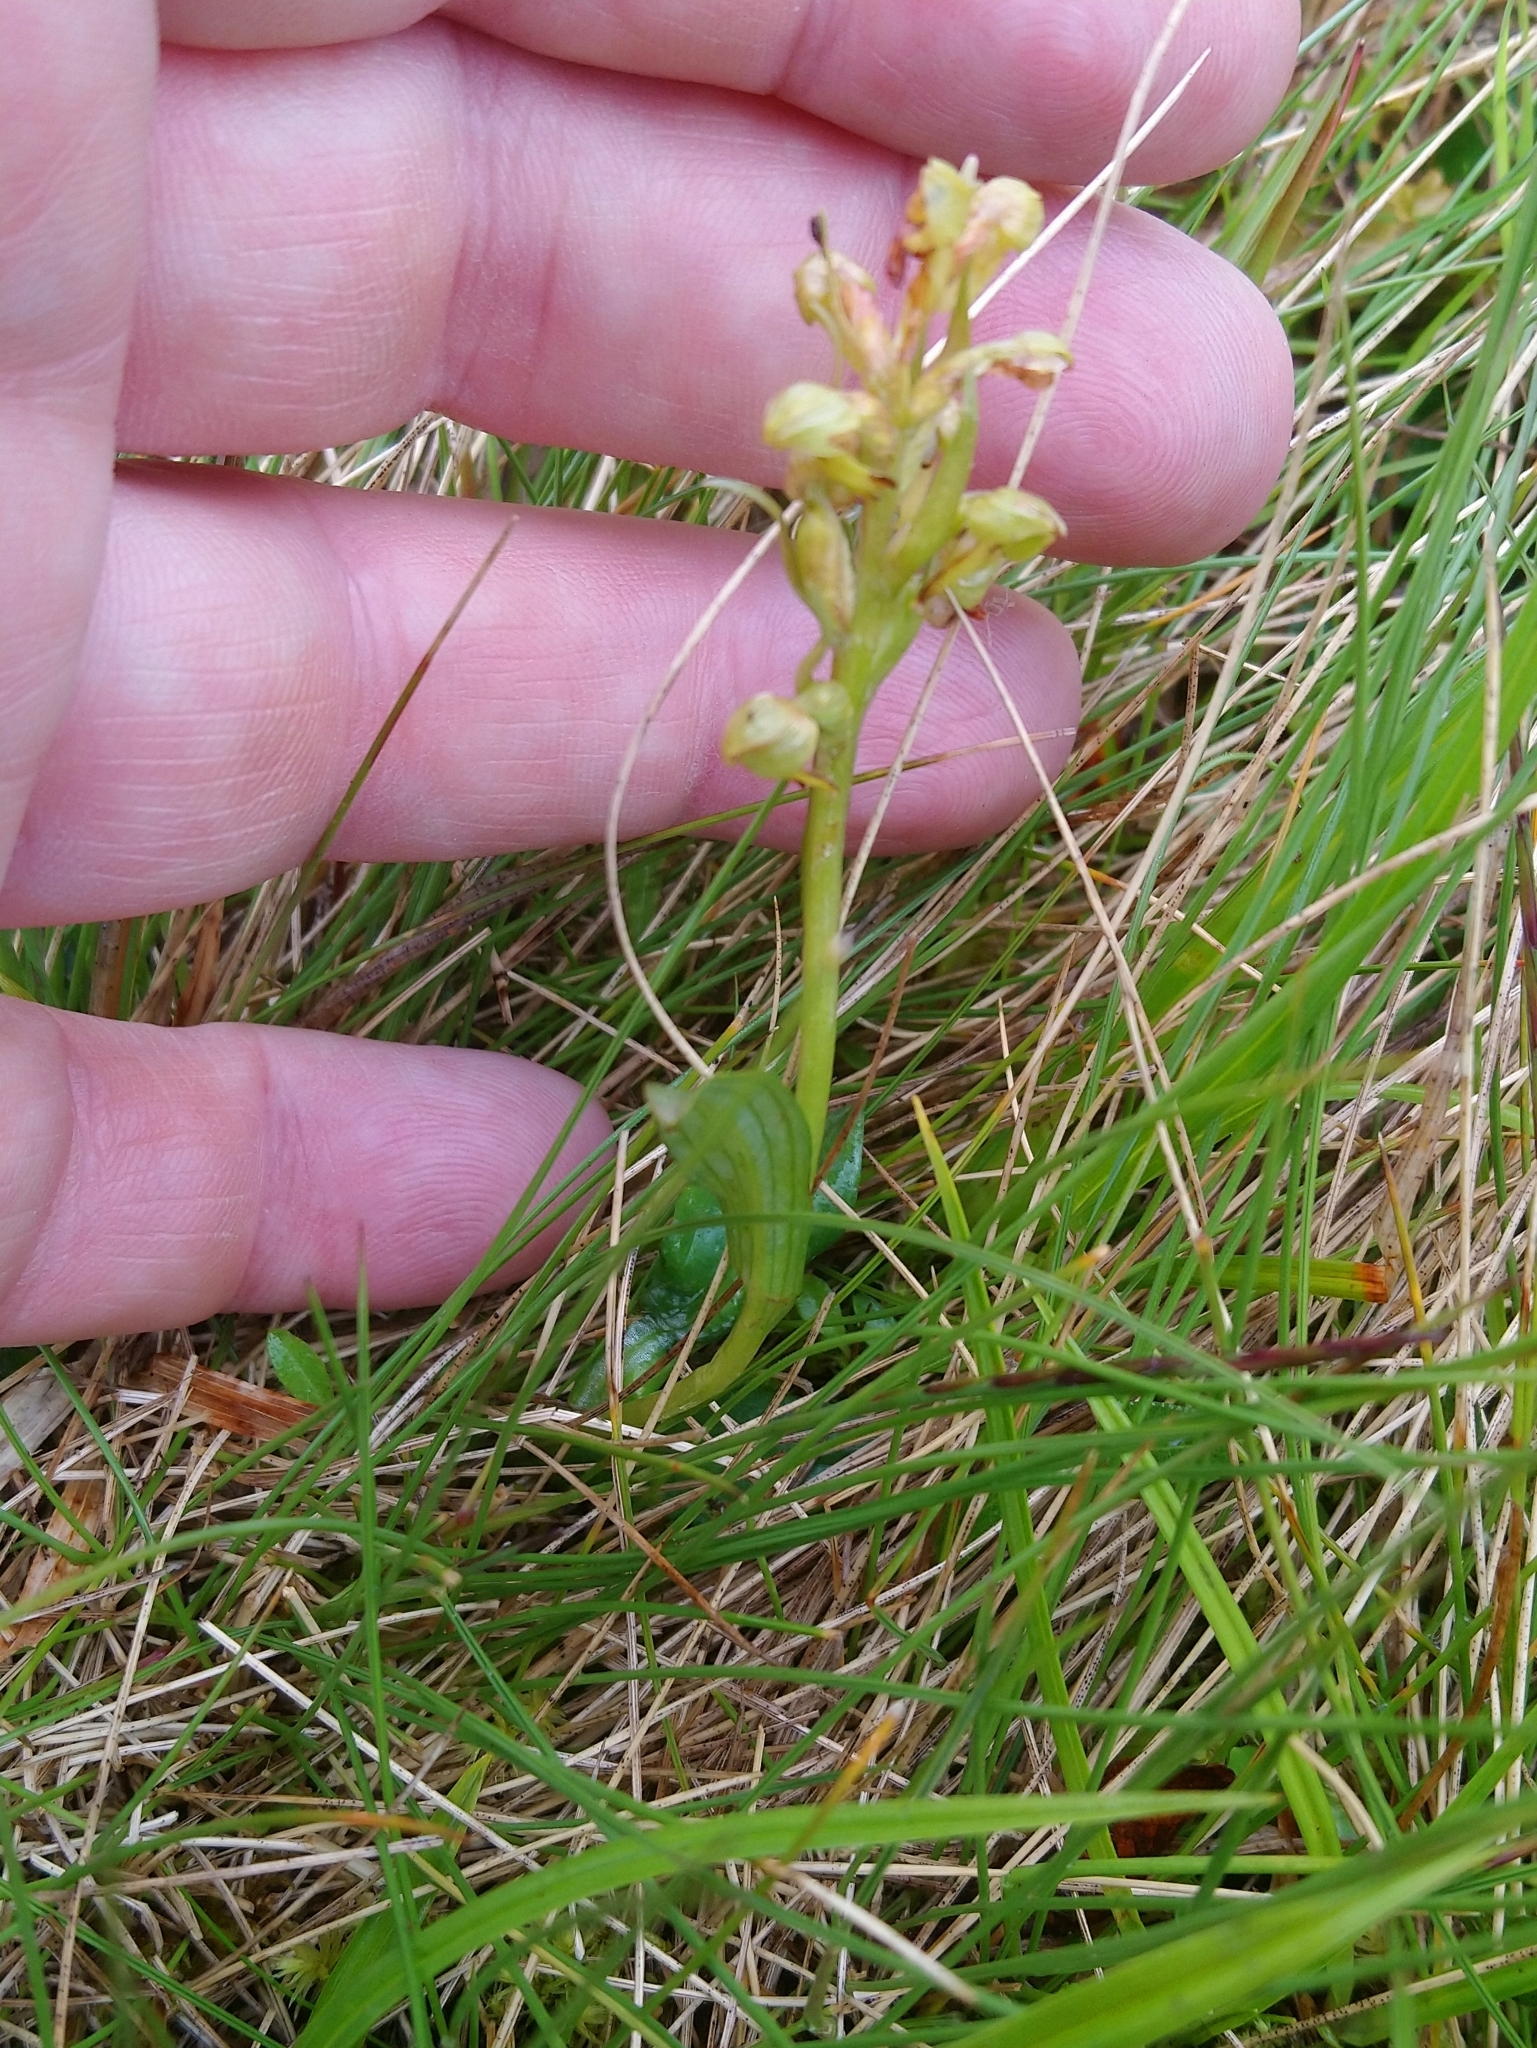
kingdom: Plantae
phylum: Tracheophyta
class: Liliopsida
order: Asparagales
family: Orchidaceae
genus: Dactylorhiza
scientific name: Dactylorhiza viridis
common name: Longbract frog orchid
